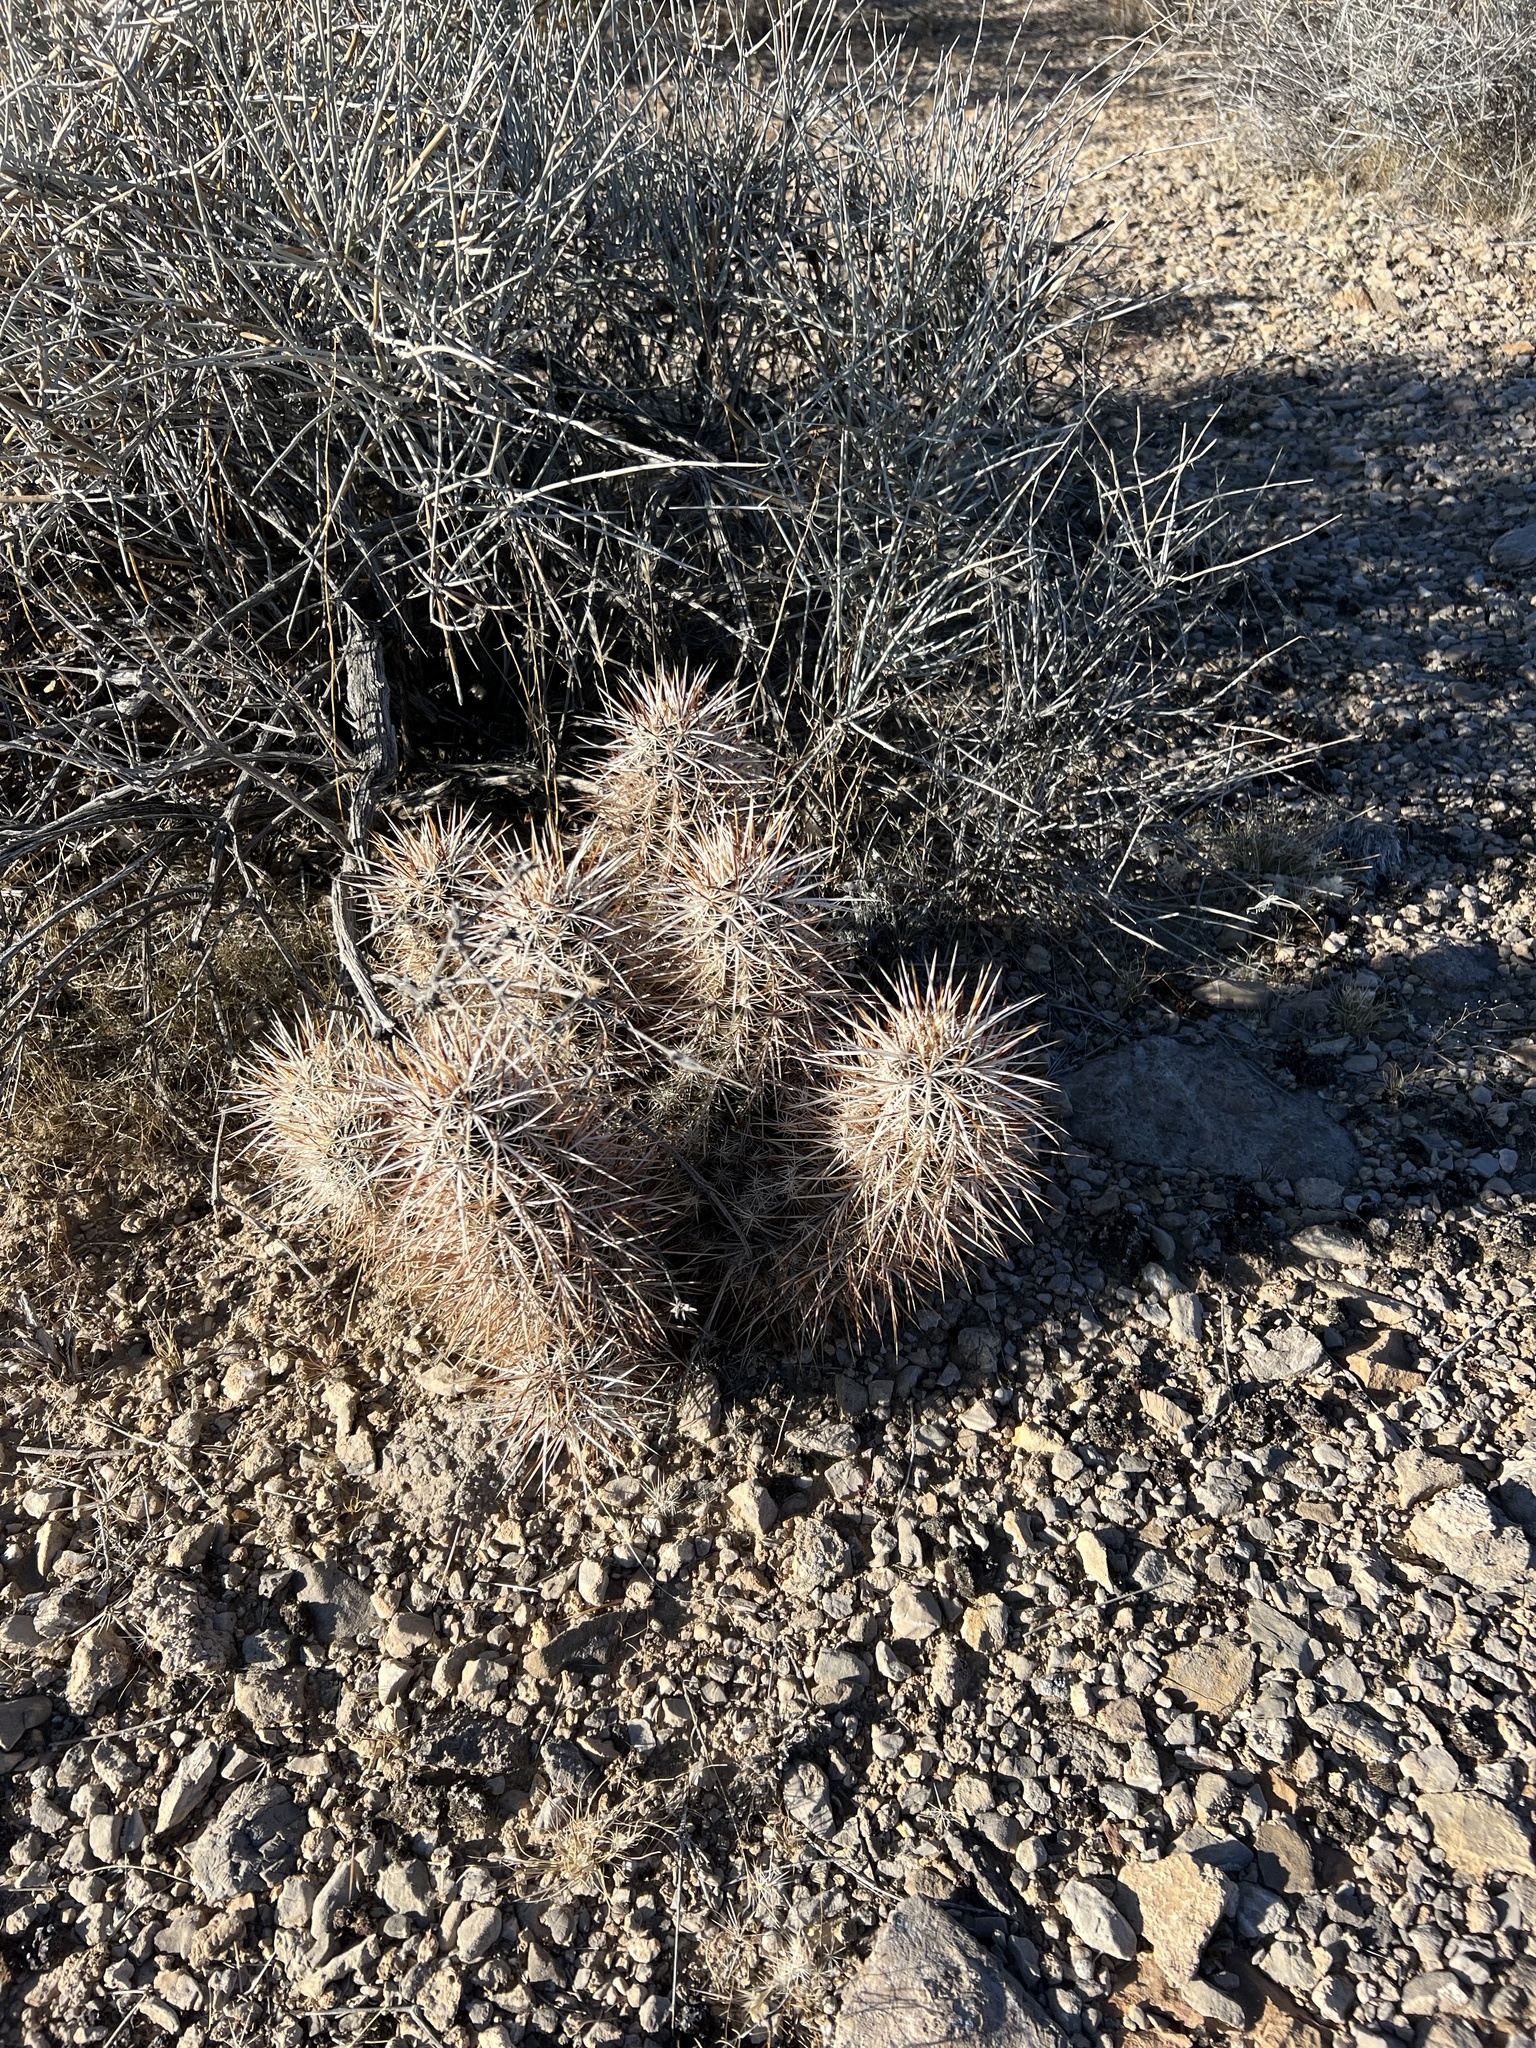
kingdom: Plantae
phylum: Tracheophyta
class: Magnoliopsida
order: Caryophyllales
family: Cactaceae
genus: Echinocereus
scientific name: Echinocereus engelmannii
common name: Engelmann's hedgehog cactus
